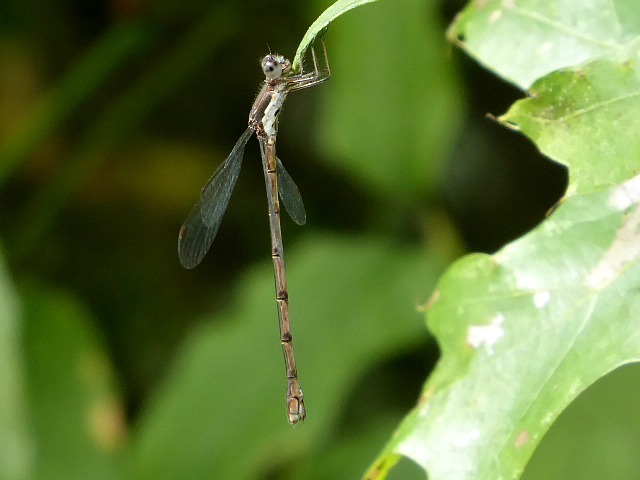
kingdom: Animalia
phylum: Arthropoda
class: Insecta
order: Odonata
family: Lestidae
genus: Lestes
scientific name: Lestes congener
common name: Spotted spreadwing
